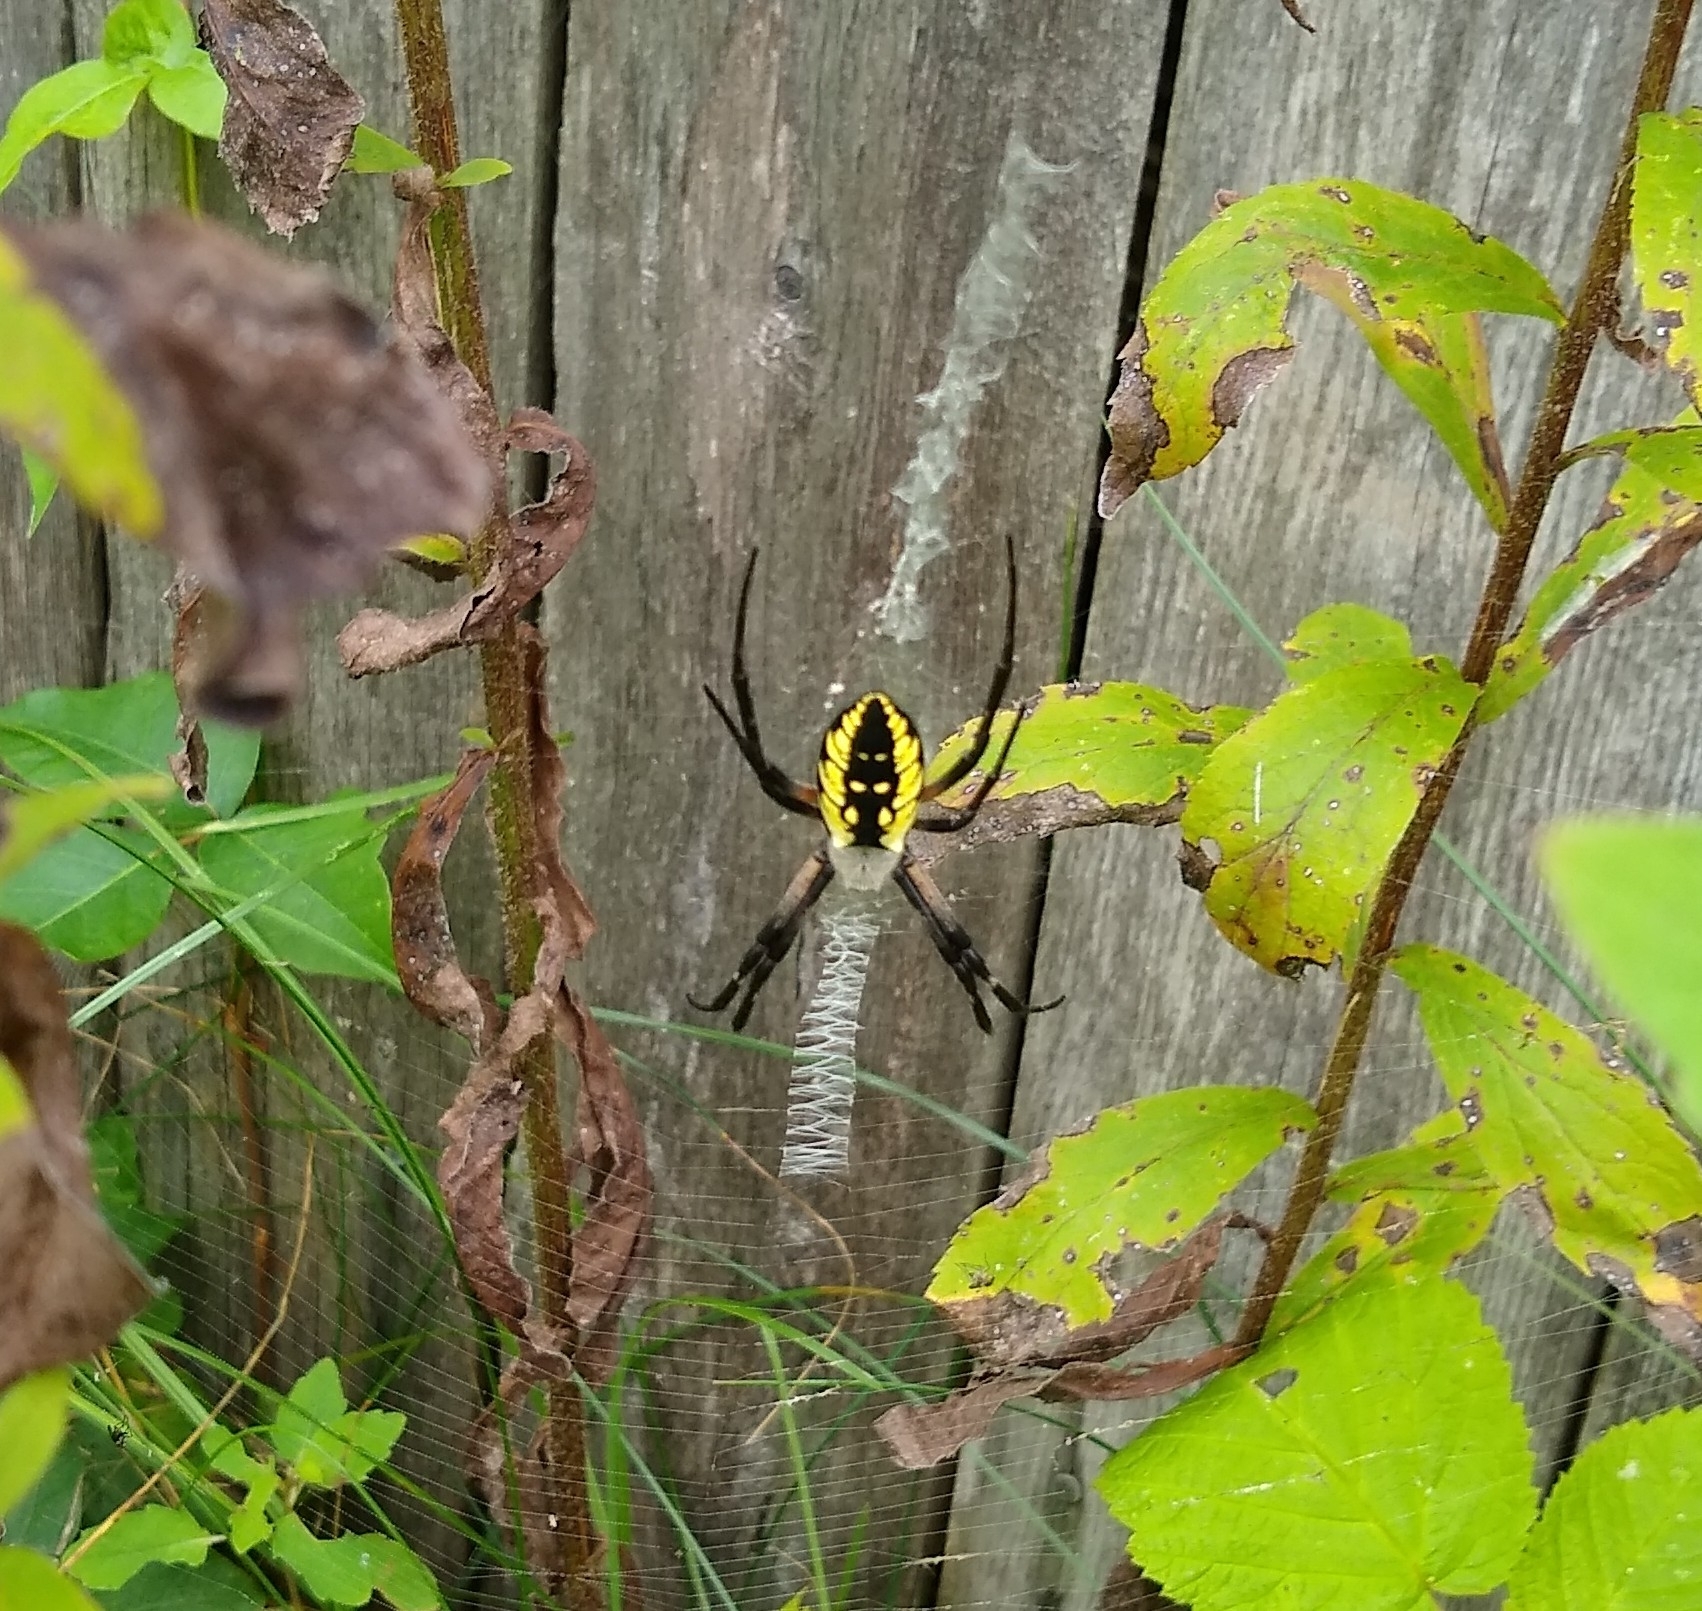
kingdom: Animalia
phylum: Arthropoda
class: Arachnida
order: Araneae
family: Araneidae
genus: Argiope
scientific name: Argiope aurantia
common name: Orb weavers
